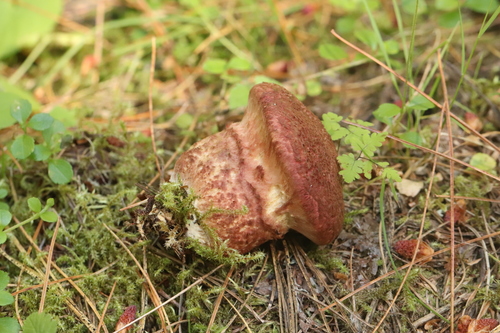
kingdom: Fungi
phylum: Basidiomycota
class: Agaricomycetes
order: Boletales
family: Suillaceae
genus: Suillus
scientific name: Suillus spraguei
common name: Painted suillus
